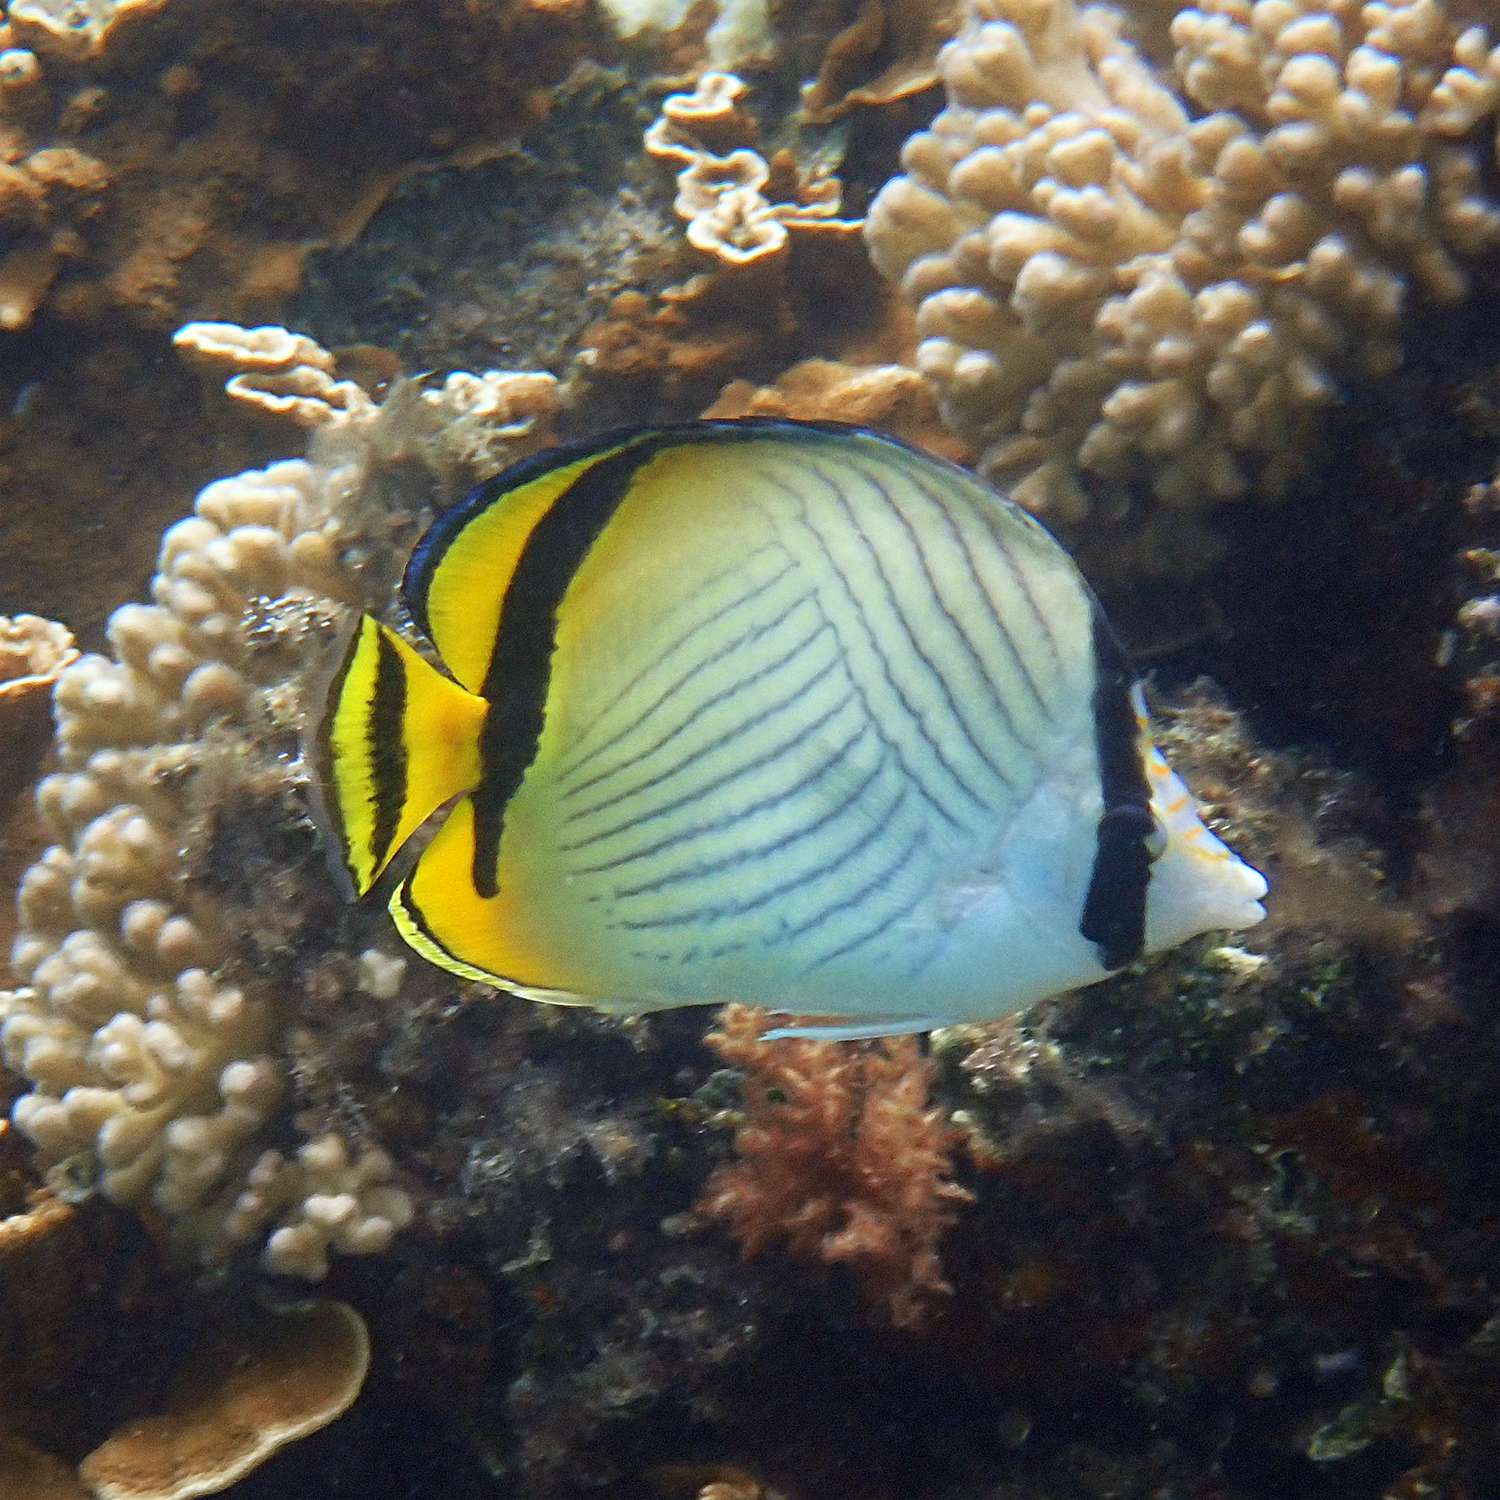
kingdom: Animalia
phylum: Chordata
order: Perciformes
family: Chaetodontidae
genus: Chaetodon
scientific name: Chaetodon vagabundus
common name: Vagabond butterflyfish
